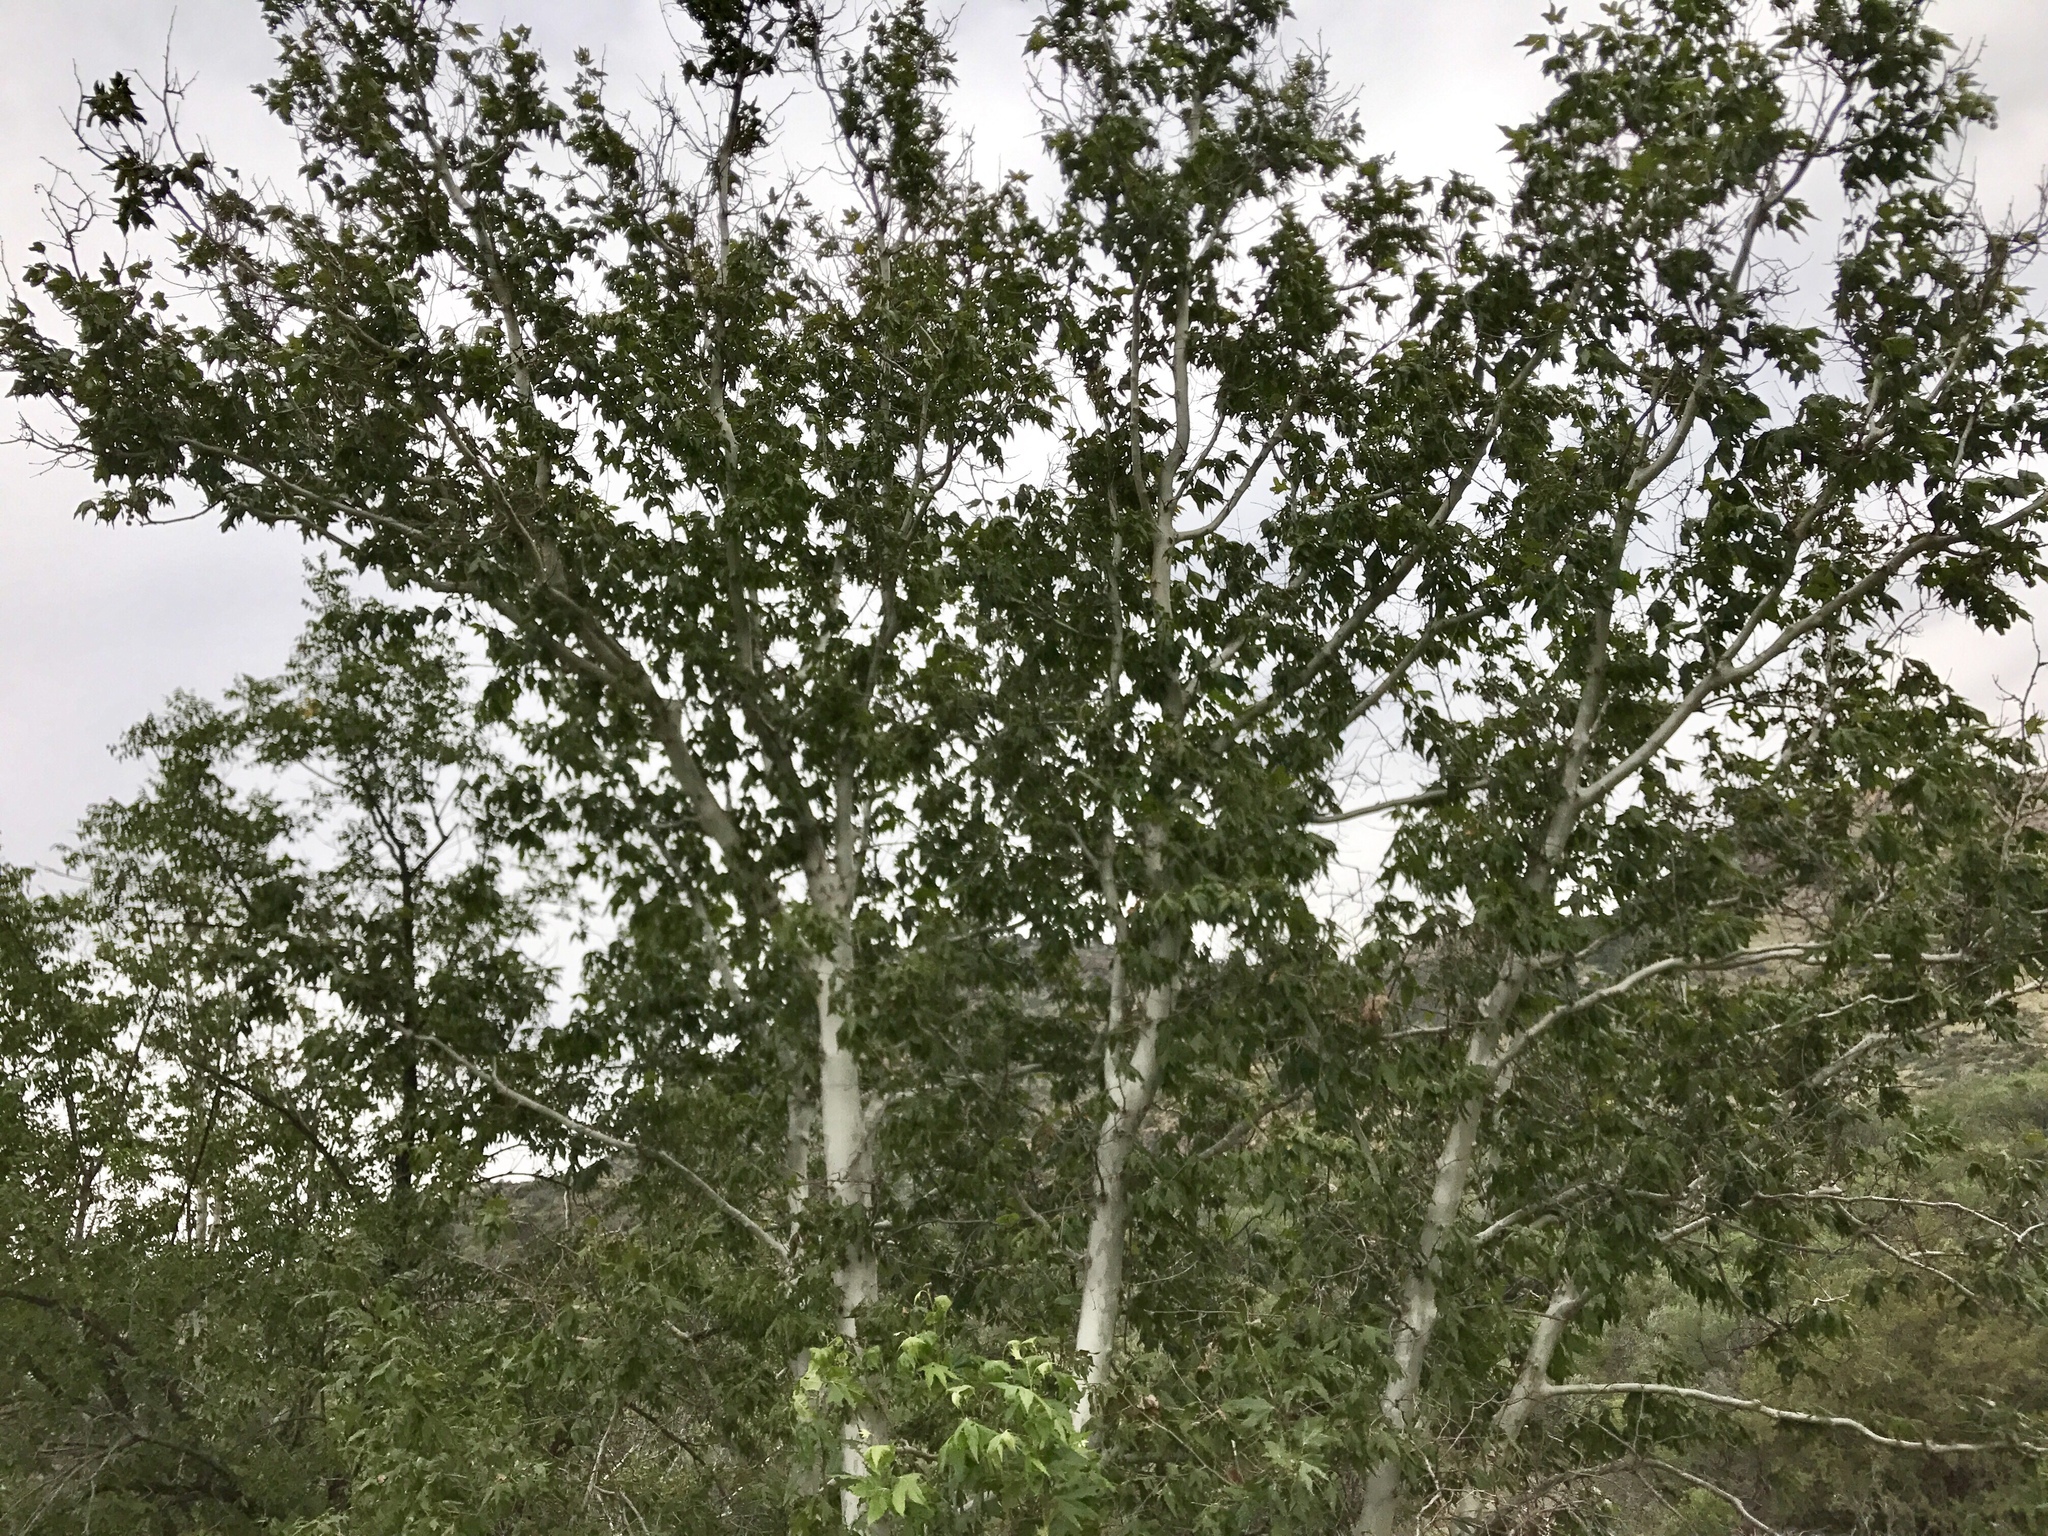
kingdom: Plantae
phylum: Tracheophyta
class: Magnoliopsida
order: Proteales
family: Platanaceae
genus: Platanus
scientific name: Platanus wrightii
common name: Arizona sycamore
